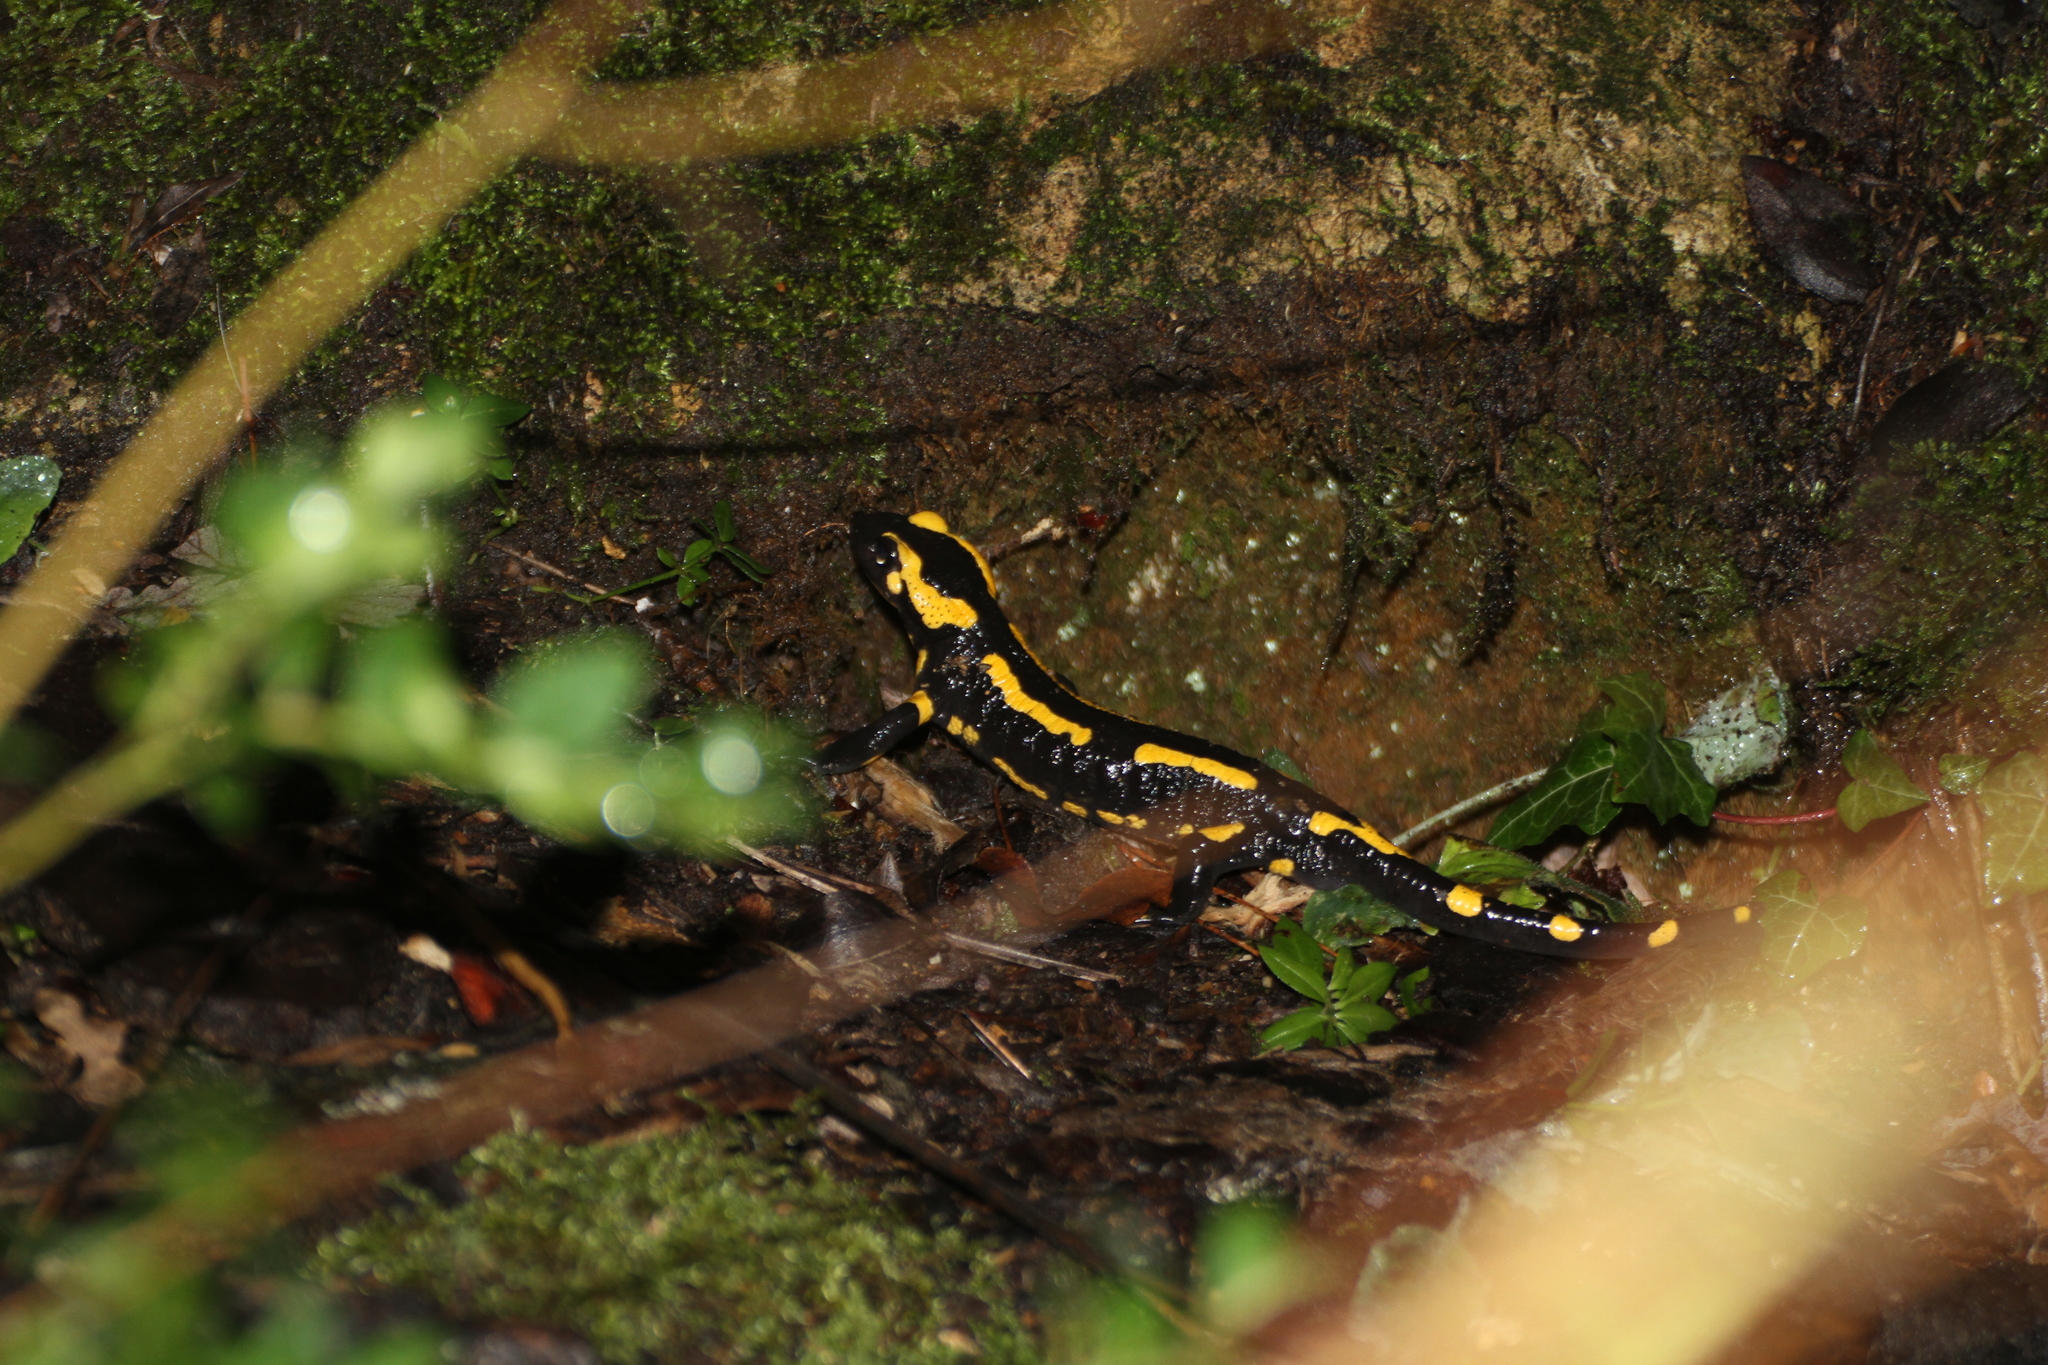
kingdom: Animalia
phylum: Chordata
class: Amphibia
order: Caudata
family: Salamandridae
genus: Salamandra
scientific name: Salamandra salamandra
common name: Fire salamander
